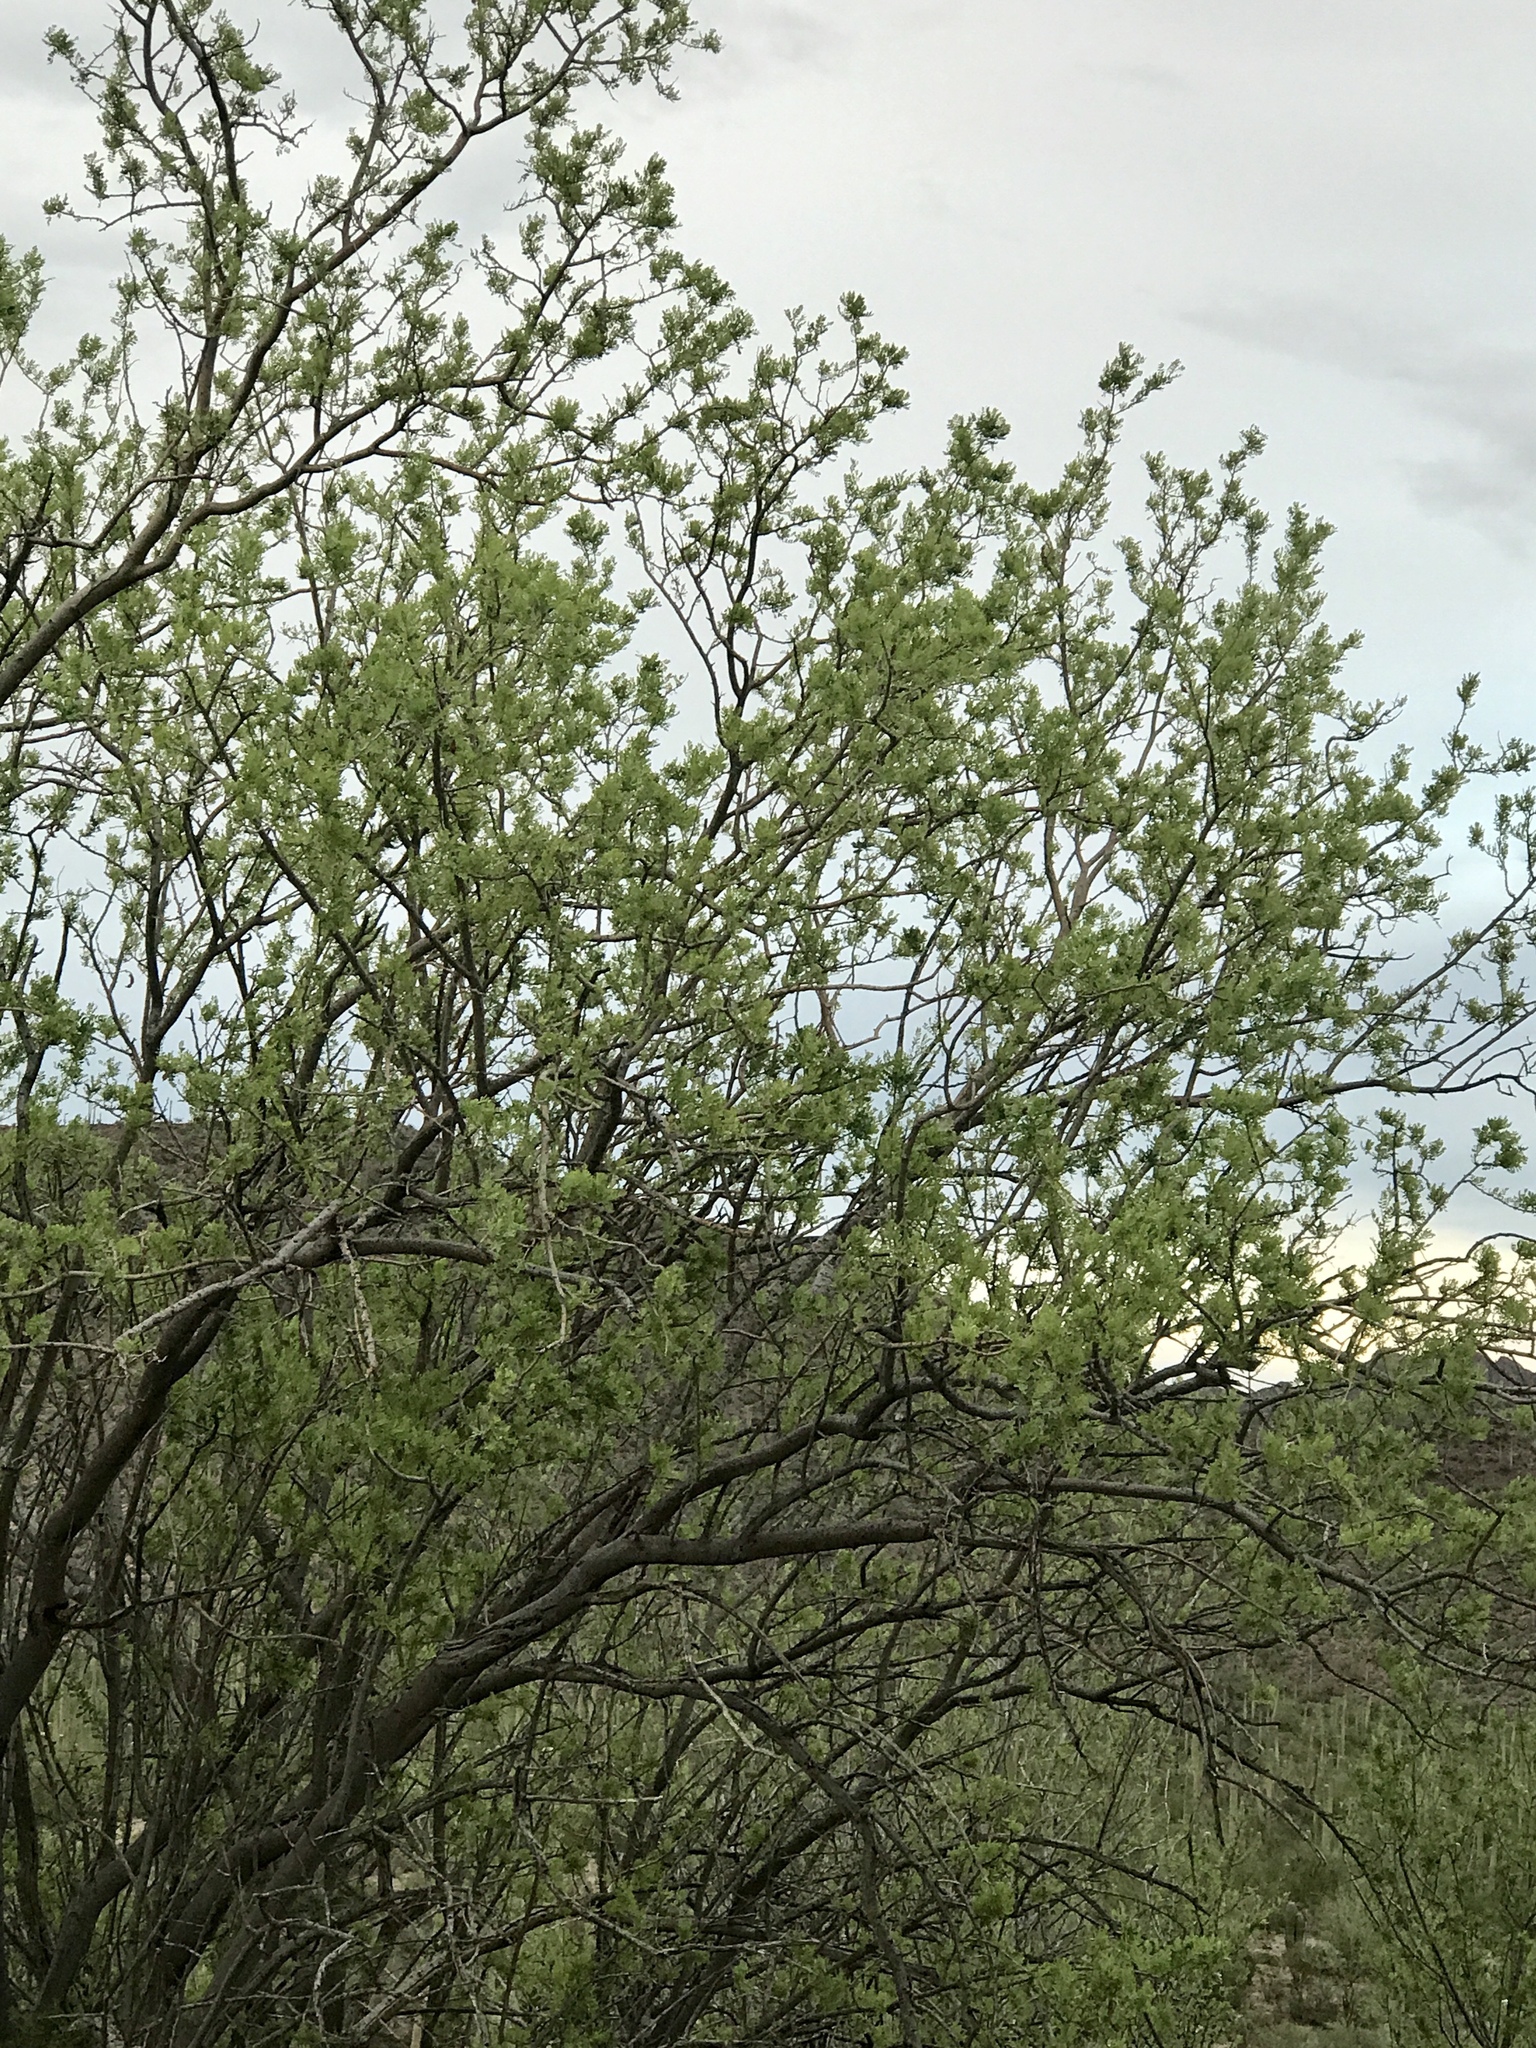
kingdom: Plantae
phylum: Tracheophyta
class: Magnoliopsida
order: Fabales
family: Fabaceae
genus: Olneya
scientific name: Olneya tesota
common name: Desert ironwood
